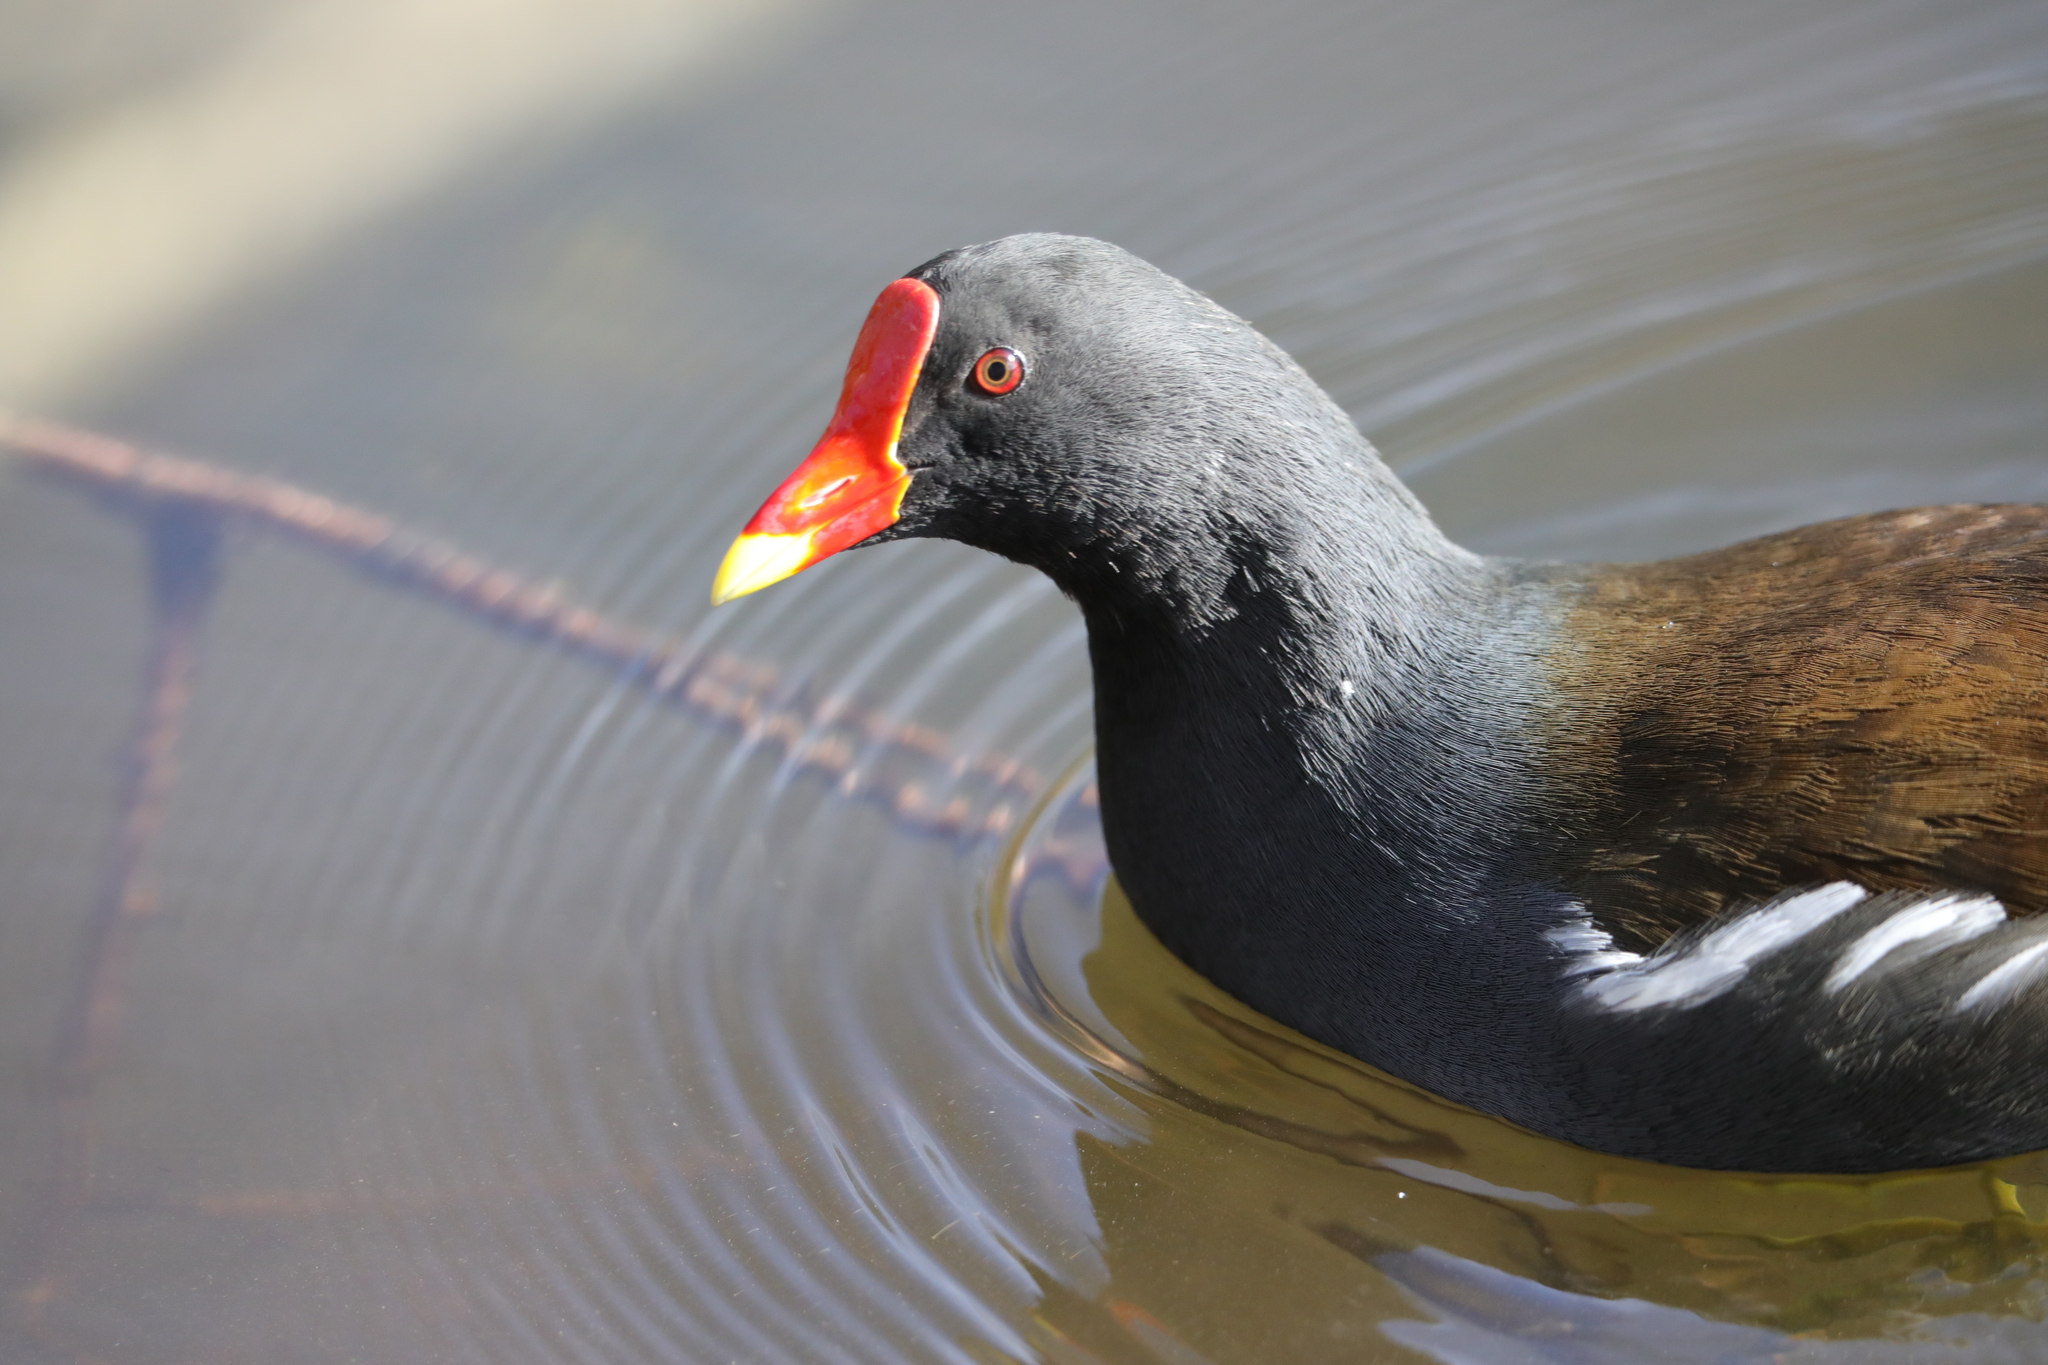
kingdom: Animalia
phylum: Chordata
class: Aves
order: Gruiformes
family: Rallidae
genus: Gallinula
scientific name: Gallinula chloropus
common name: Common moorhen
